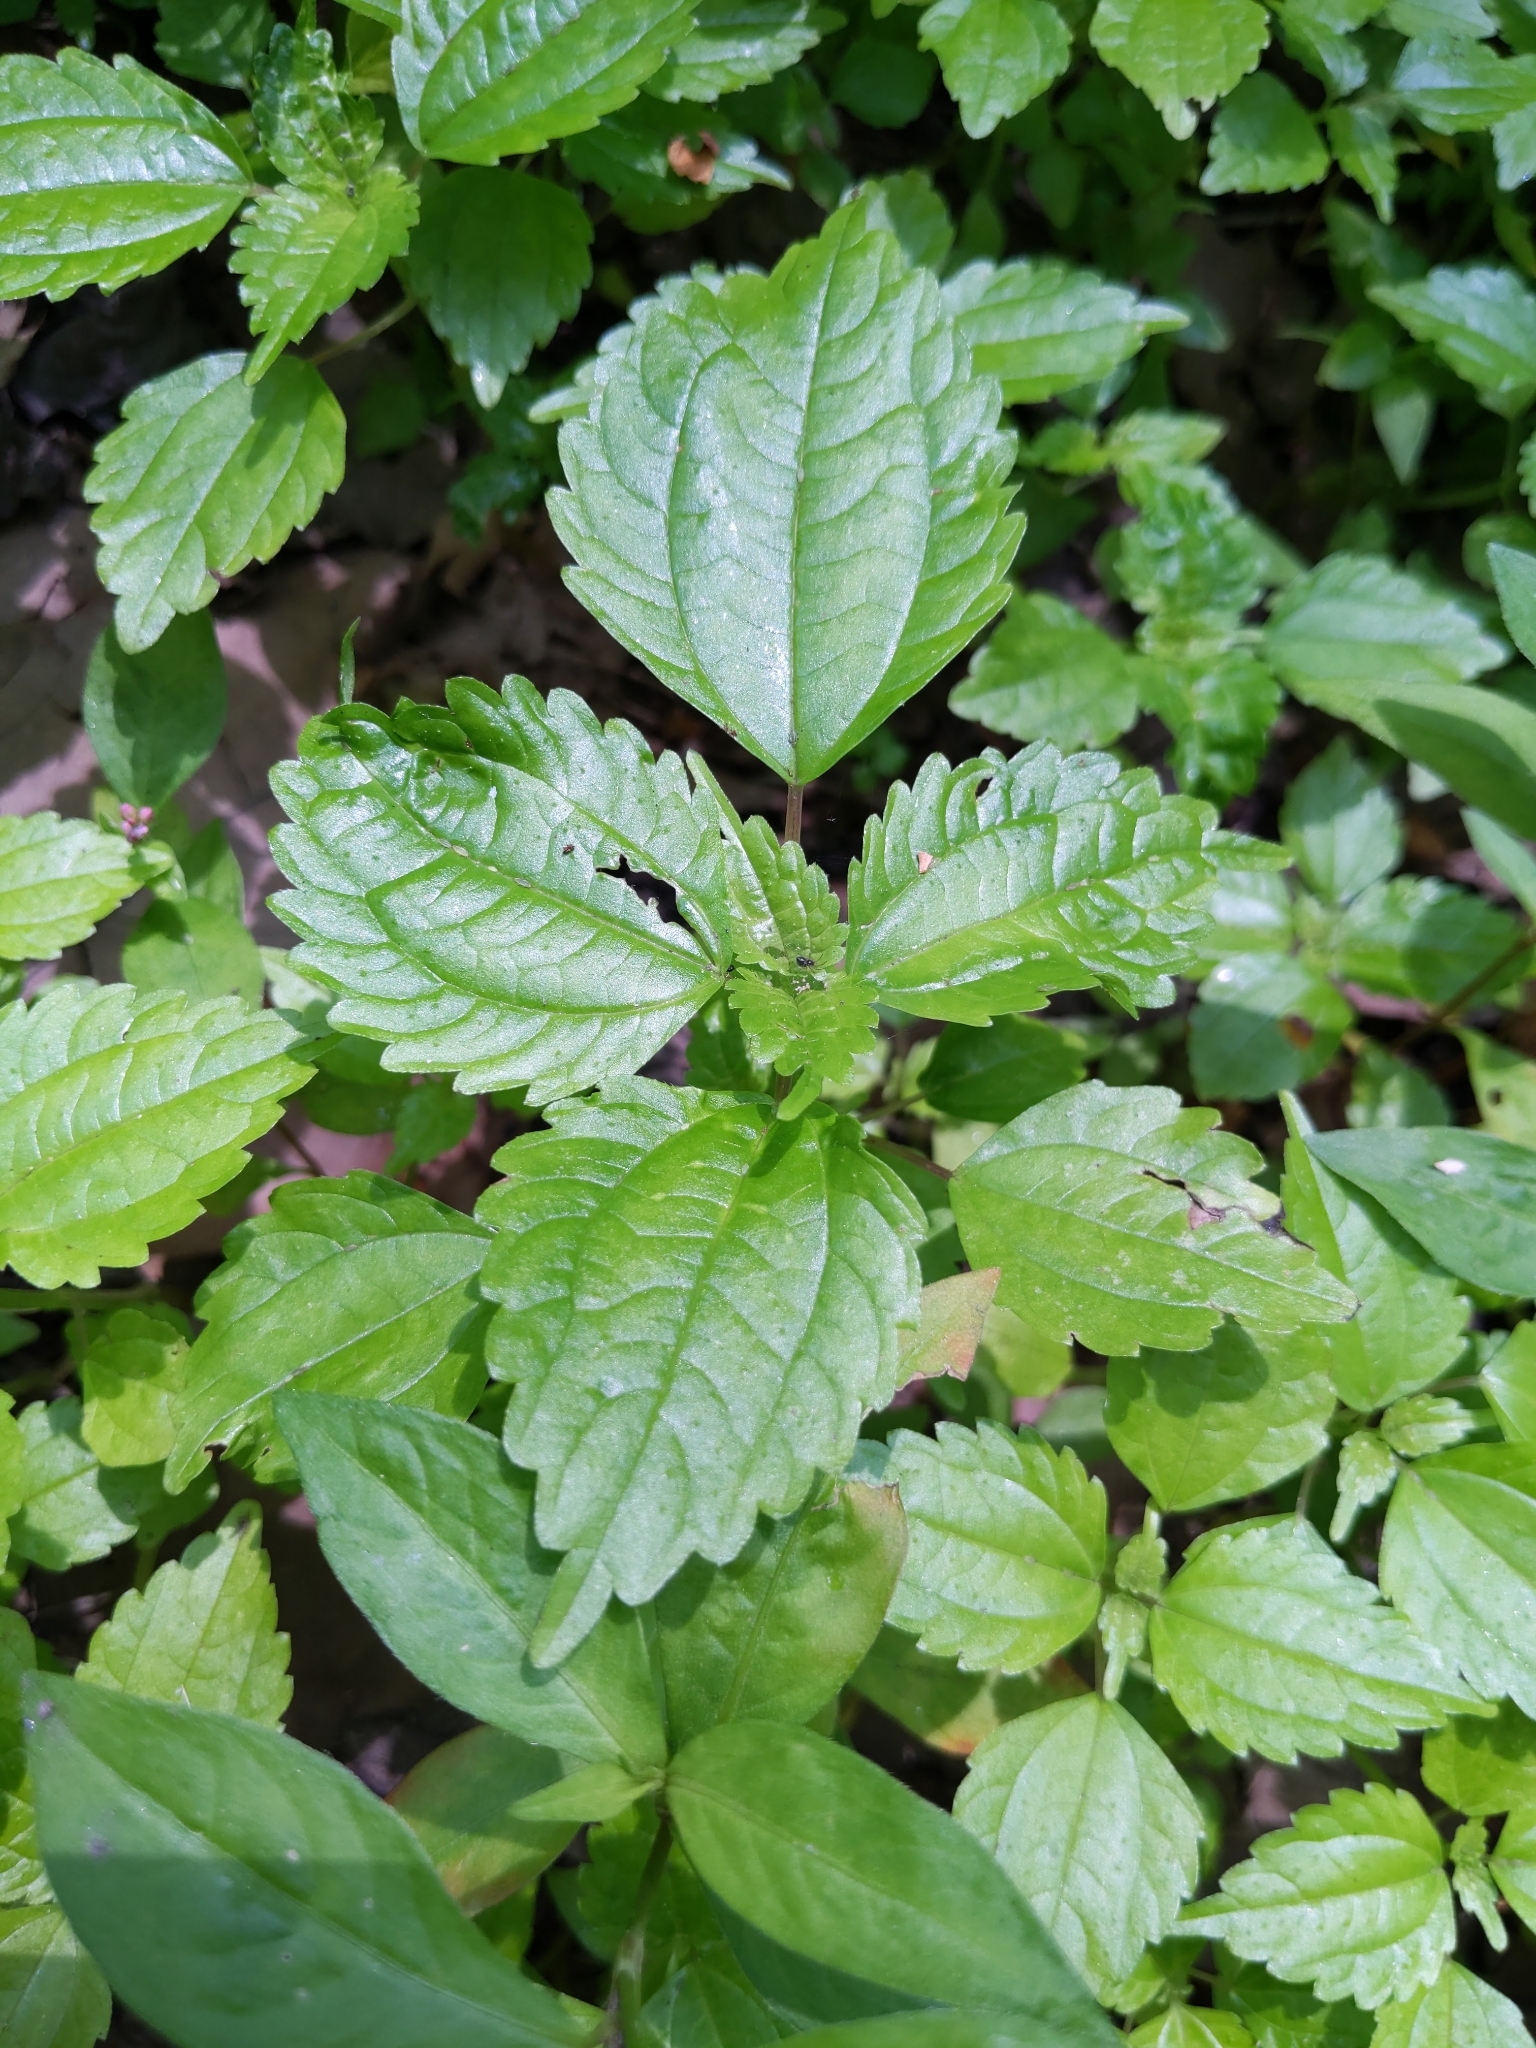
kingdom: Plantae
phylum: Tracheophyta
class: Magnoliopsida
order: Rosales
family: Urticaceae
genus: Pilea
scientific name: Pilea pumila
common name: Clearweed
